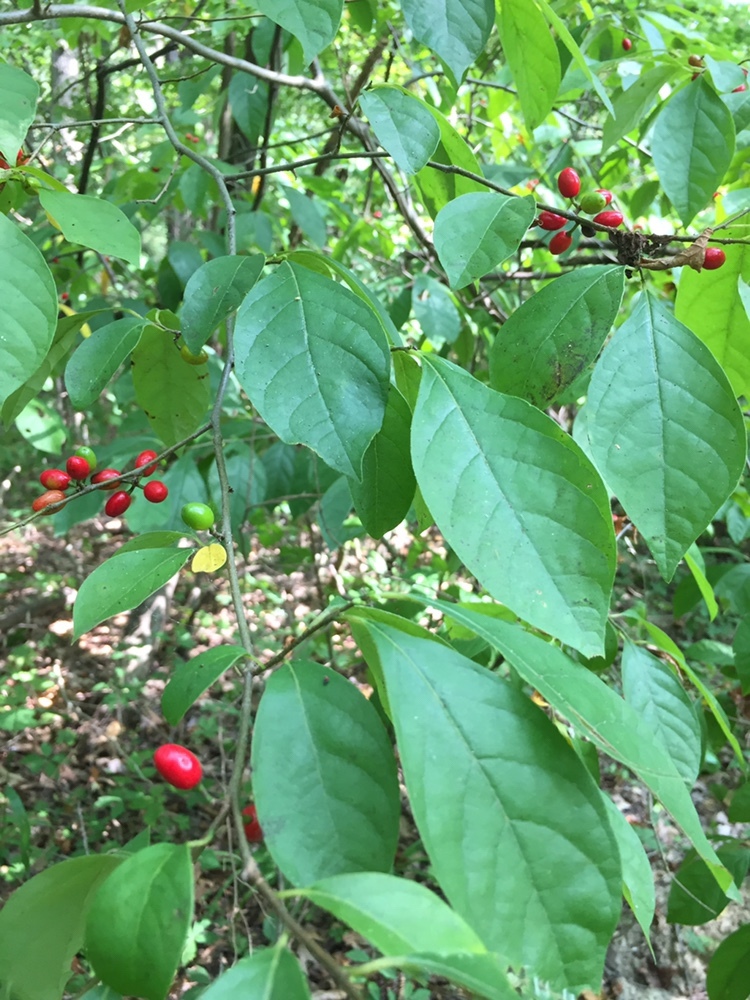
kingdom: Plantae
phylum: Tracheophyta
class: Magnoliopsida
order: Laurales
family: Lauraceae
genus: Lindera
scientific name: Lindera benzoin
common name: Spicebush
